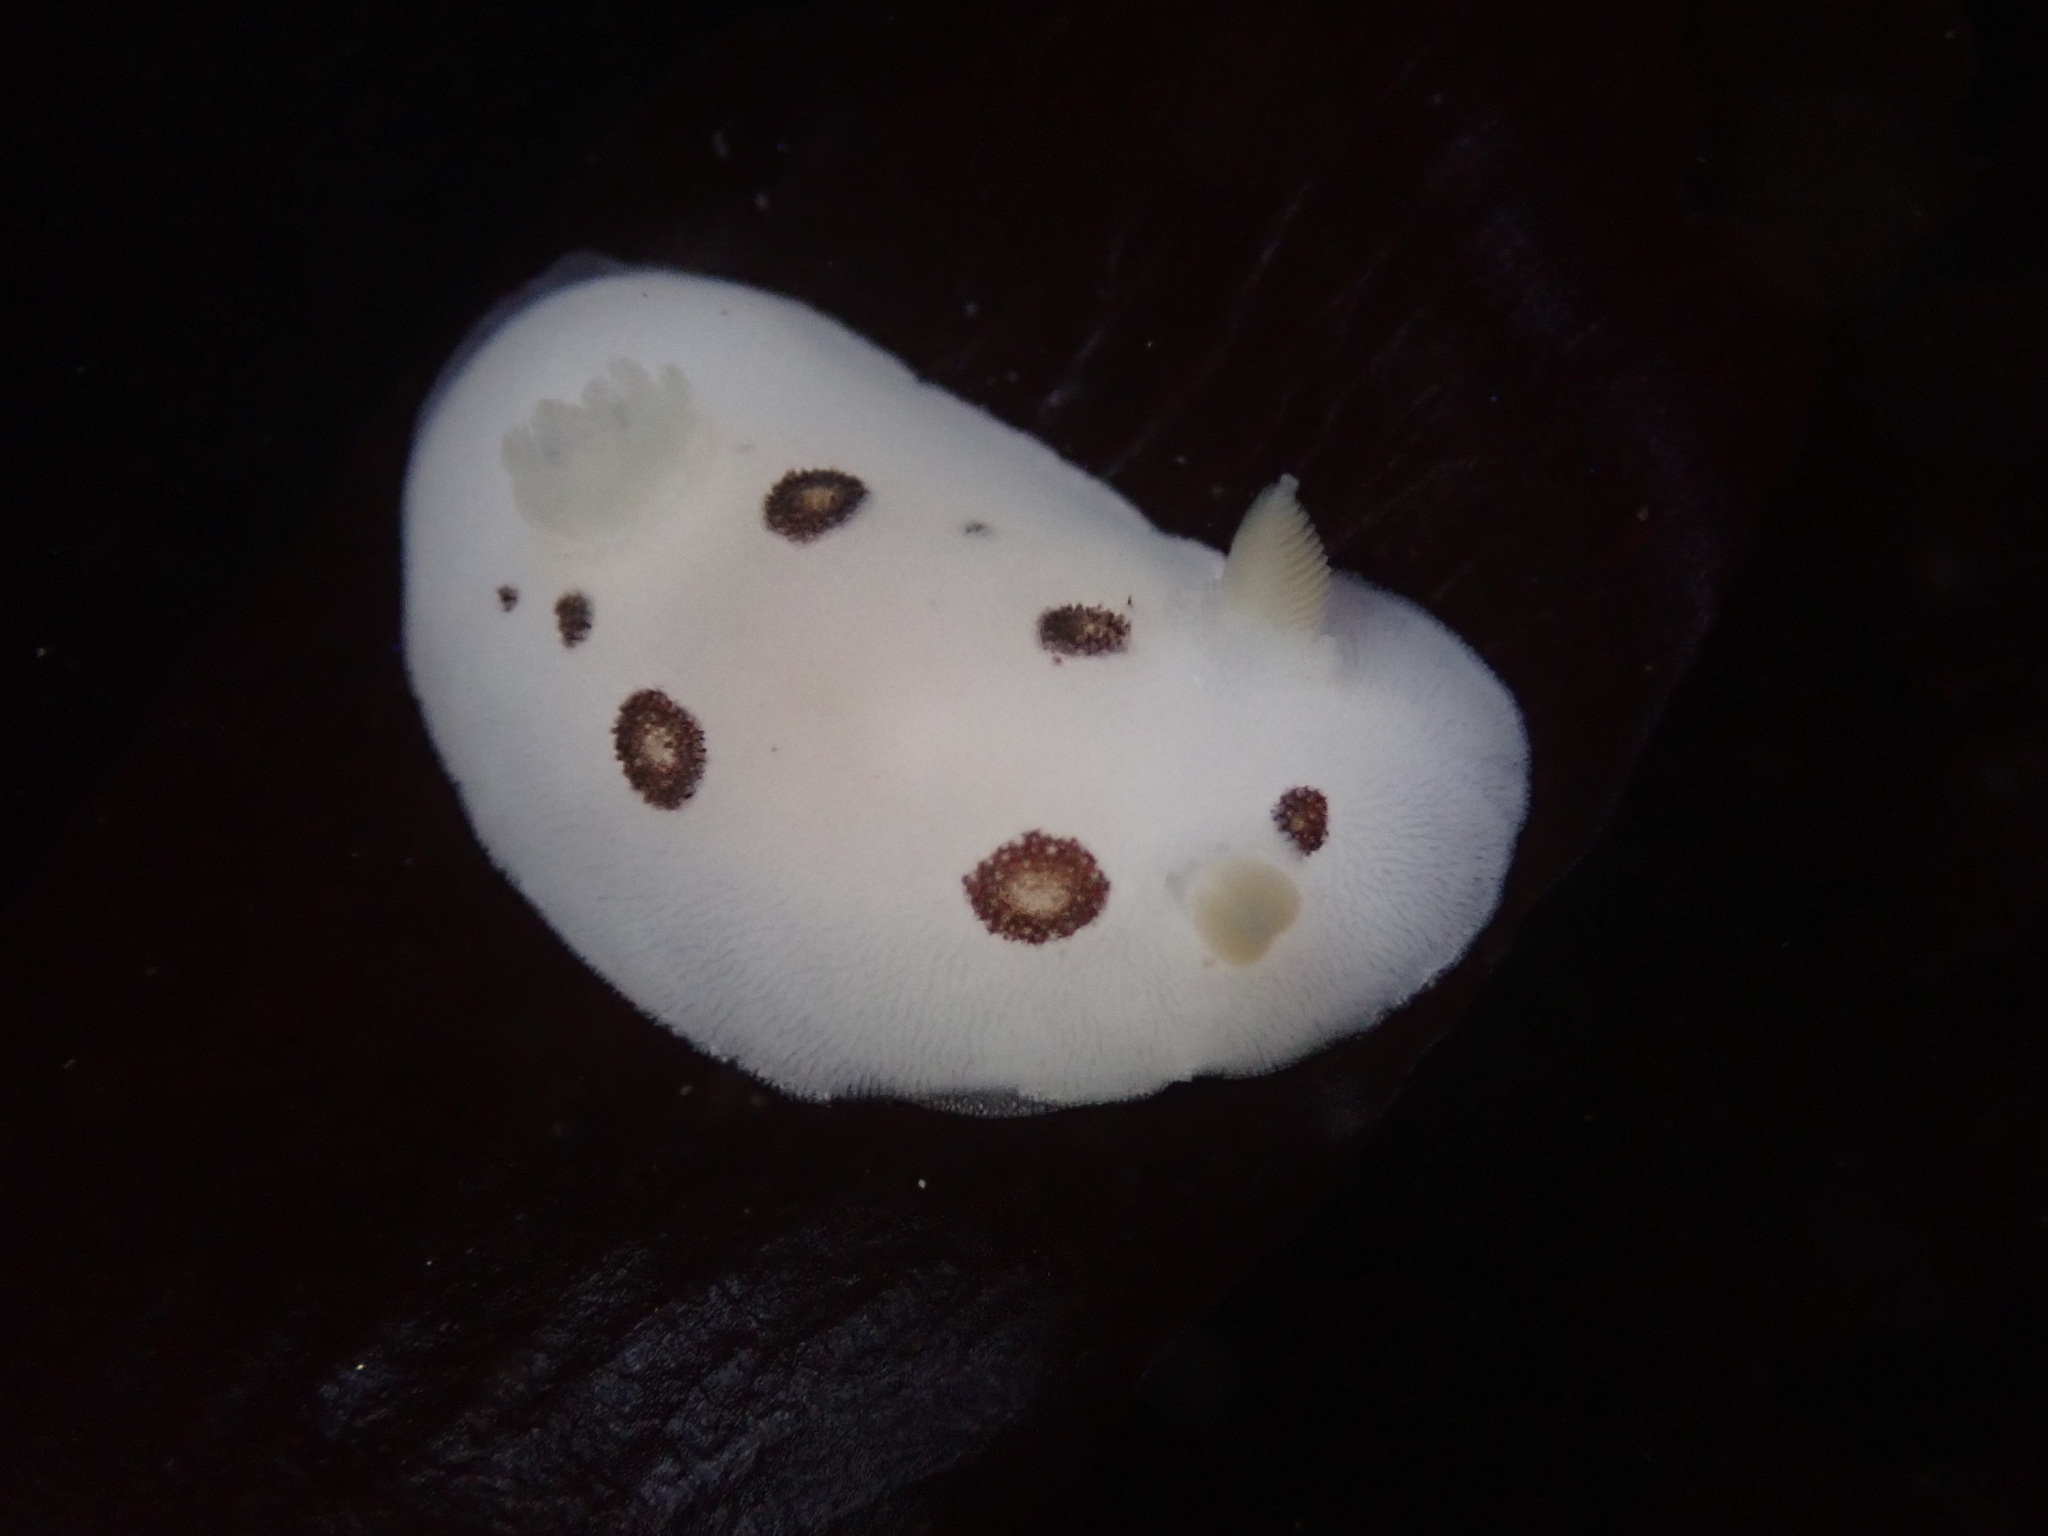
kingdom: Animalia
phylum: Mollusca
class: Gastropoda
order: Nudibranchia
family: Discodorididae
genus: Diaulula
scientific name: Diaulula sandiegensis
